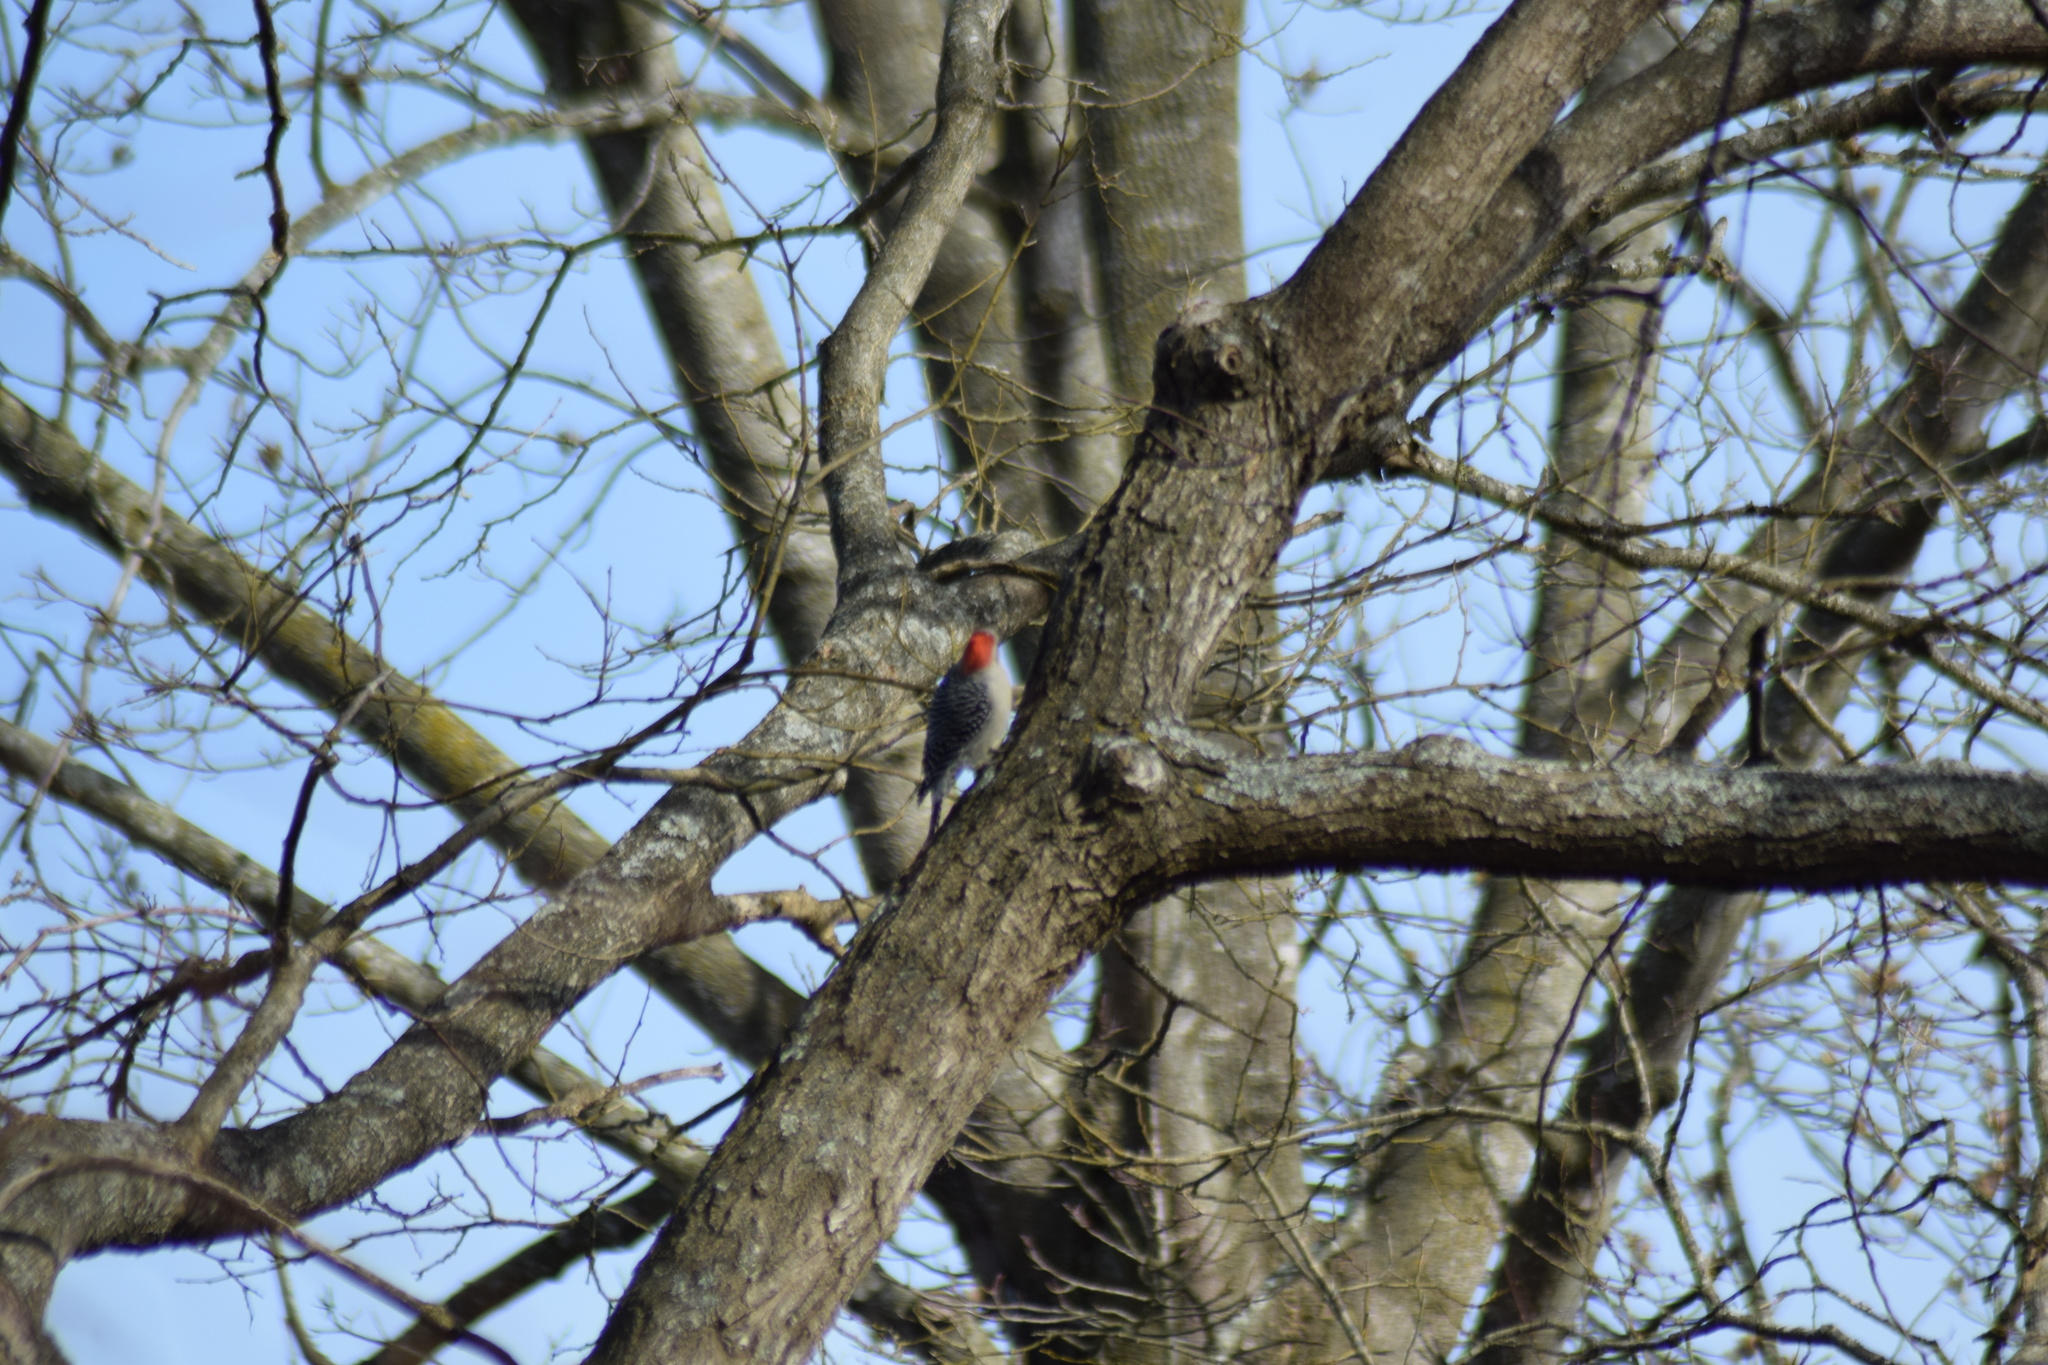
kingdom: Animalia
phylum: Chordata
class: Aves
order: Piciformes
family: Picidae
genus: Melanerpes
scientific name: Melanerpes carolinus
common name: Red-bellied woodpecker
